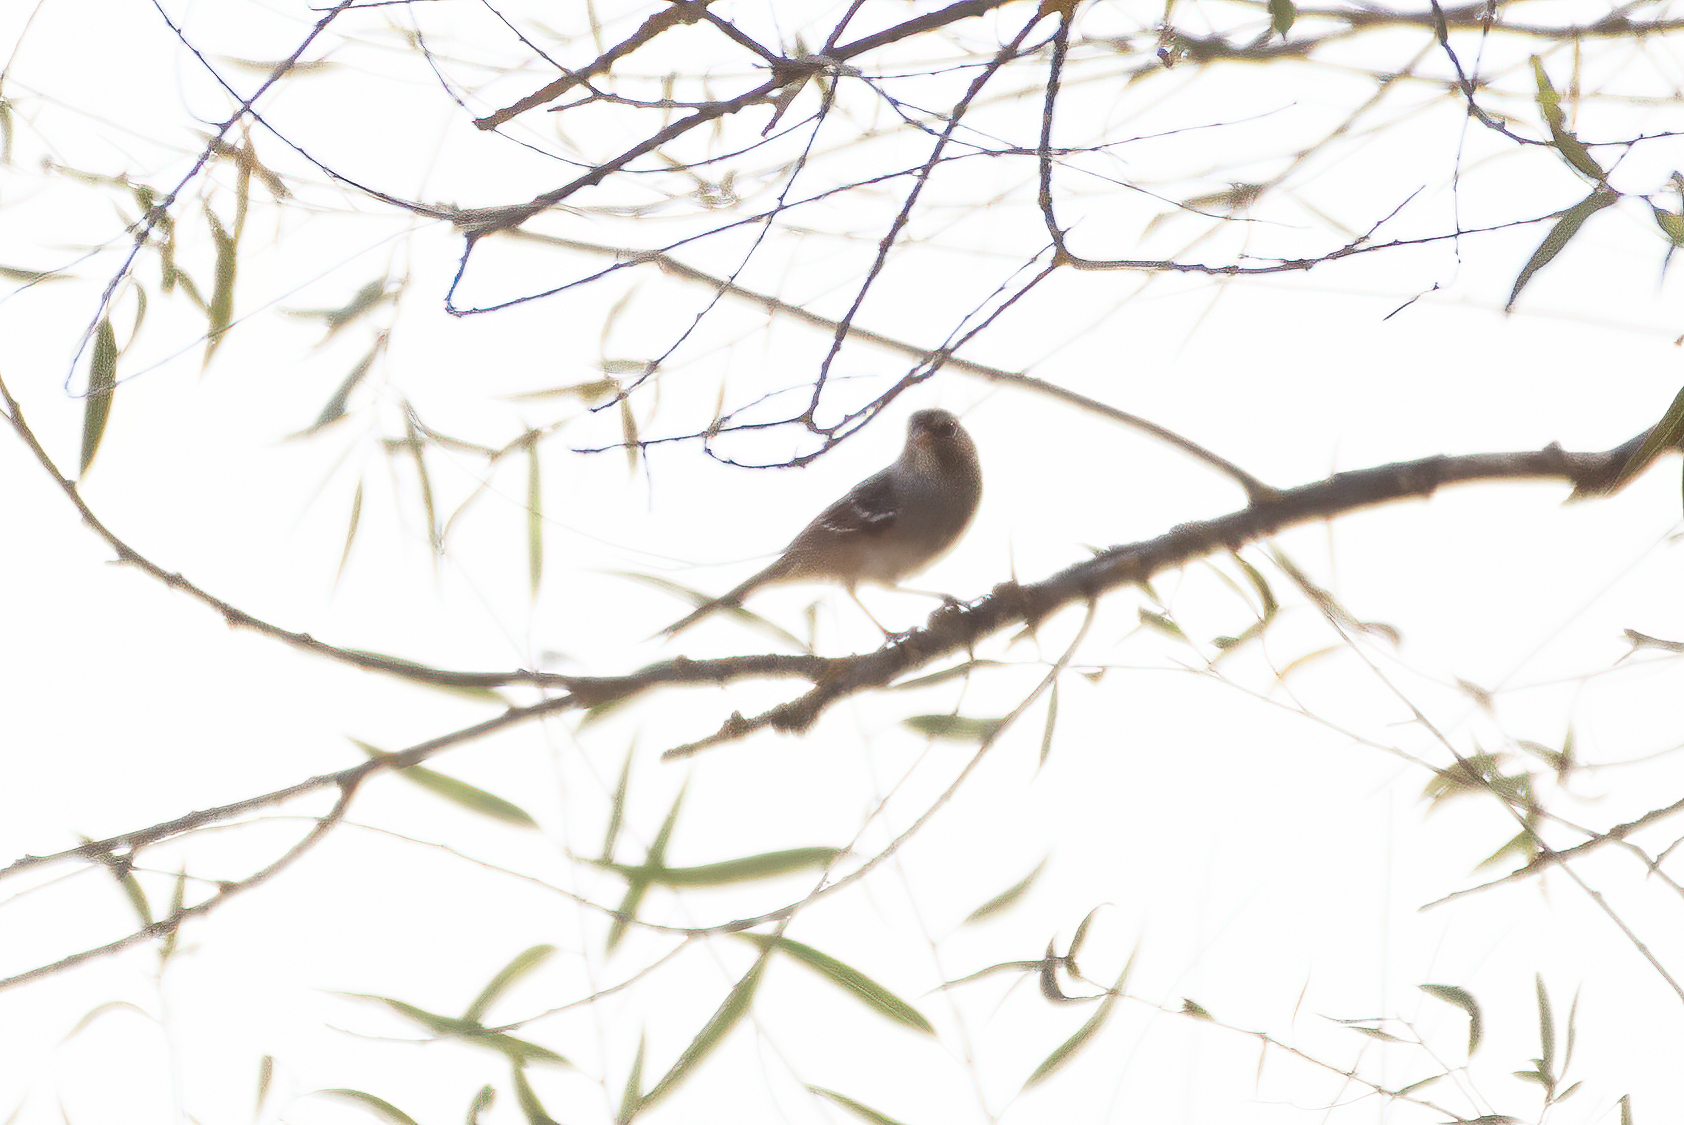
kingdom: Animalia
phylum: Chordata
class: Aves
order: Passeriformes
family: Passerellidae
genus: Zonotrichia
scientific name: Zonotrichia leucophrys
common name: White-crowned sparrow
